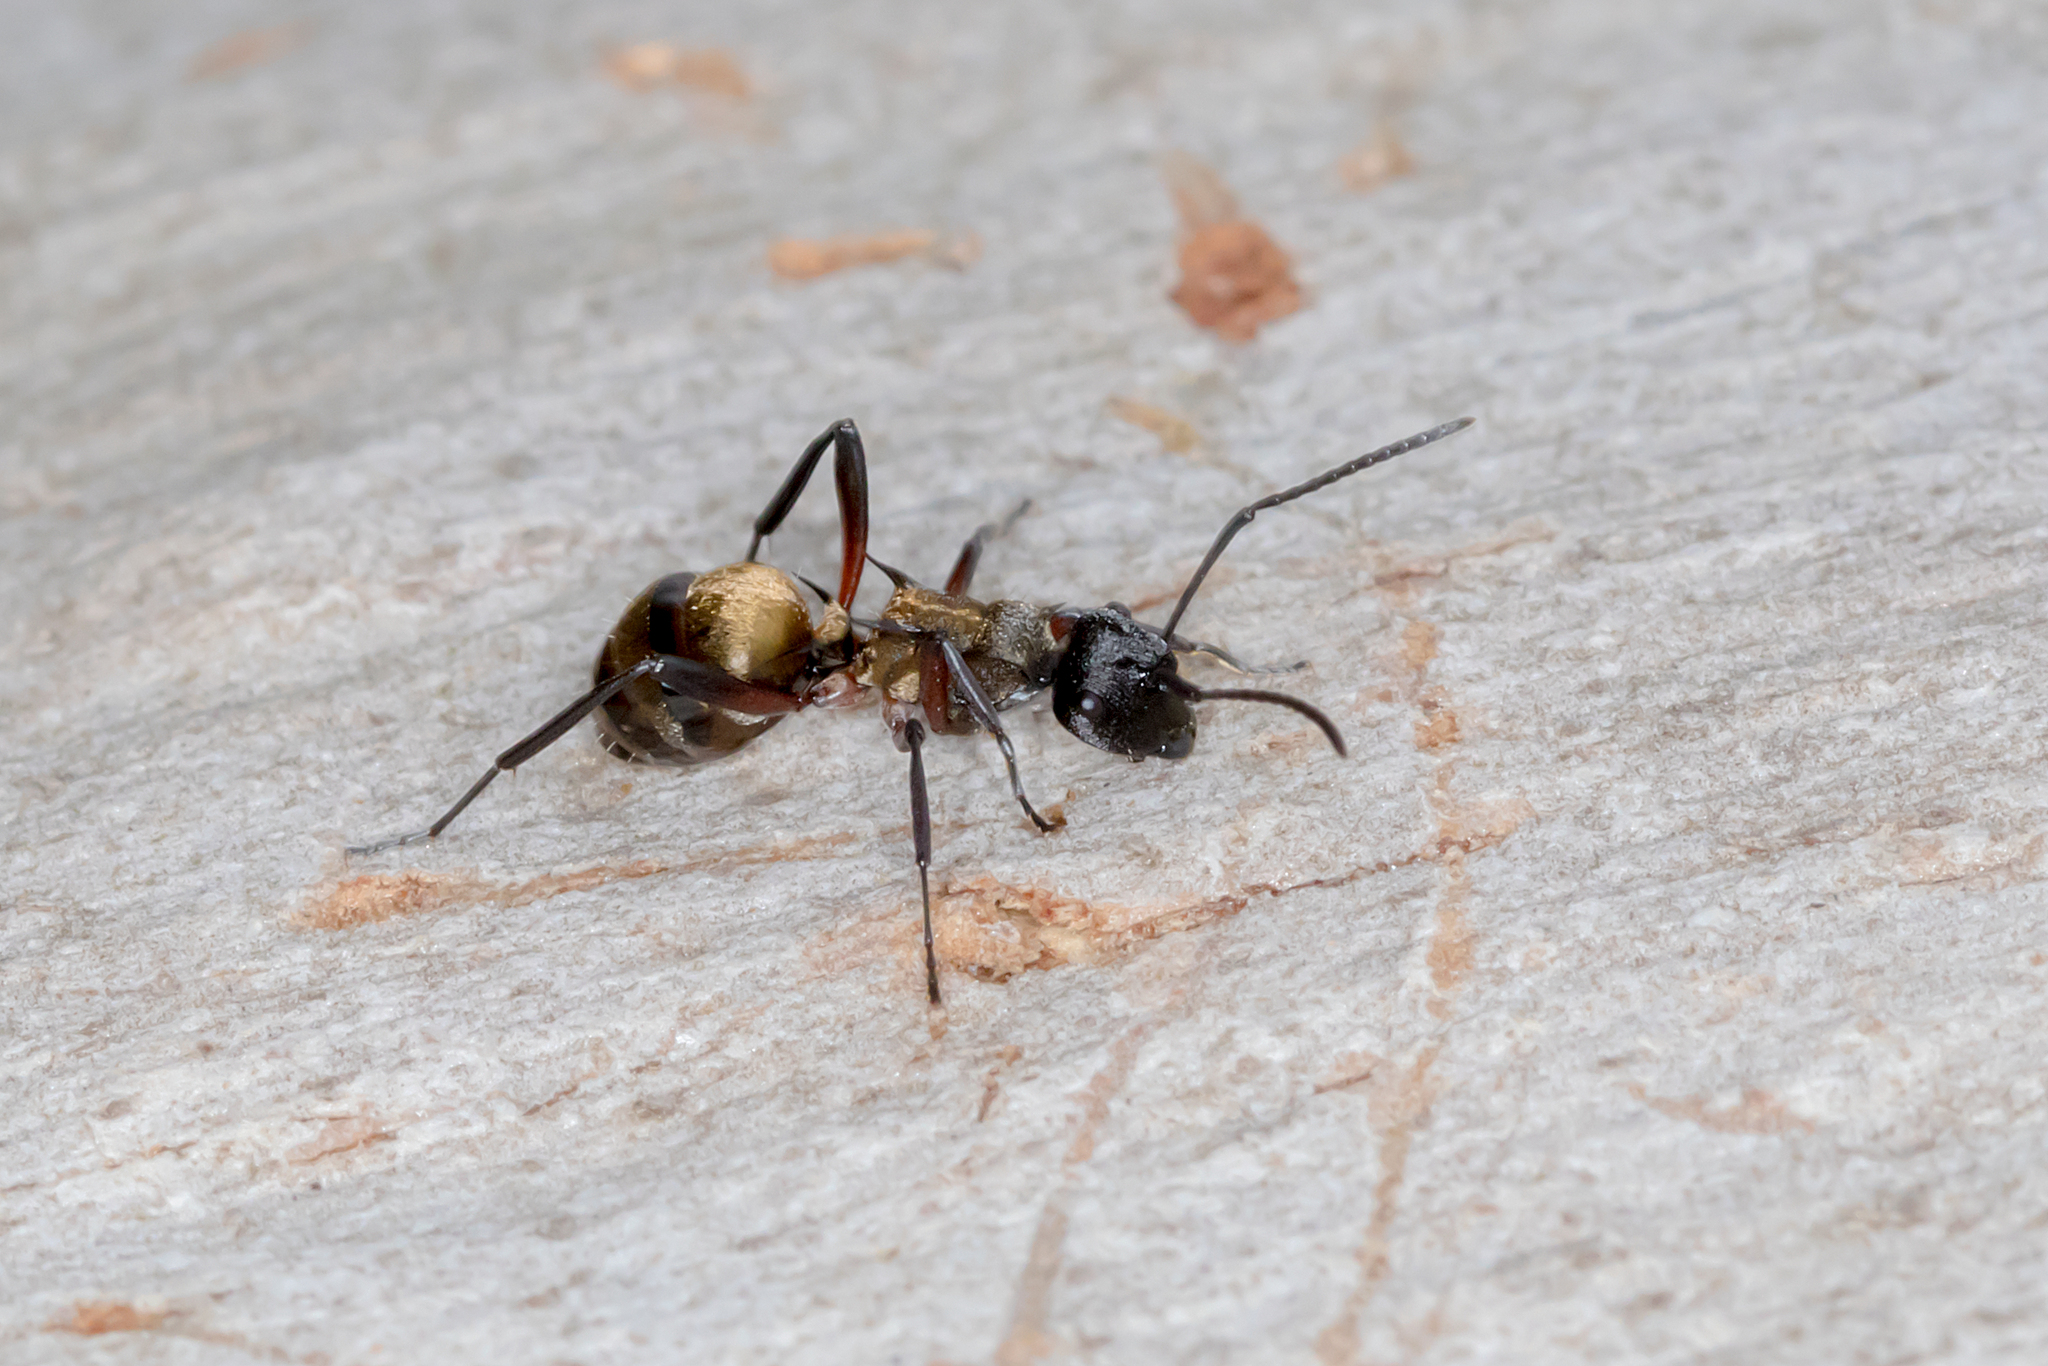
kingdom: Animalia
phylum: Arthropoda
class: Insecta
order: Hymenoptera
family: Formicidae
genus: Polyrhachis
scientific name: Polyrhachis rufifemur
